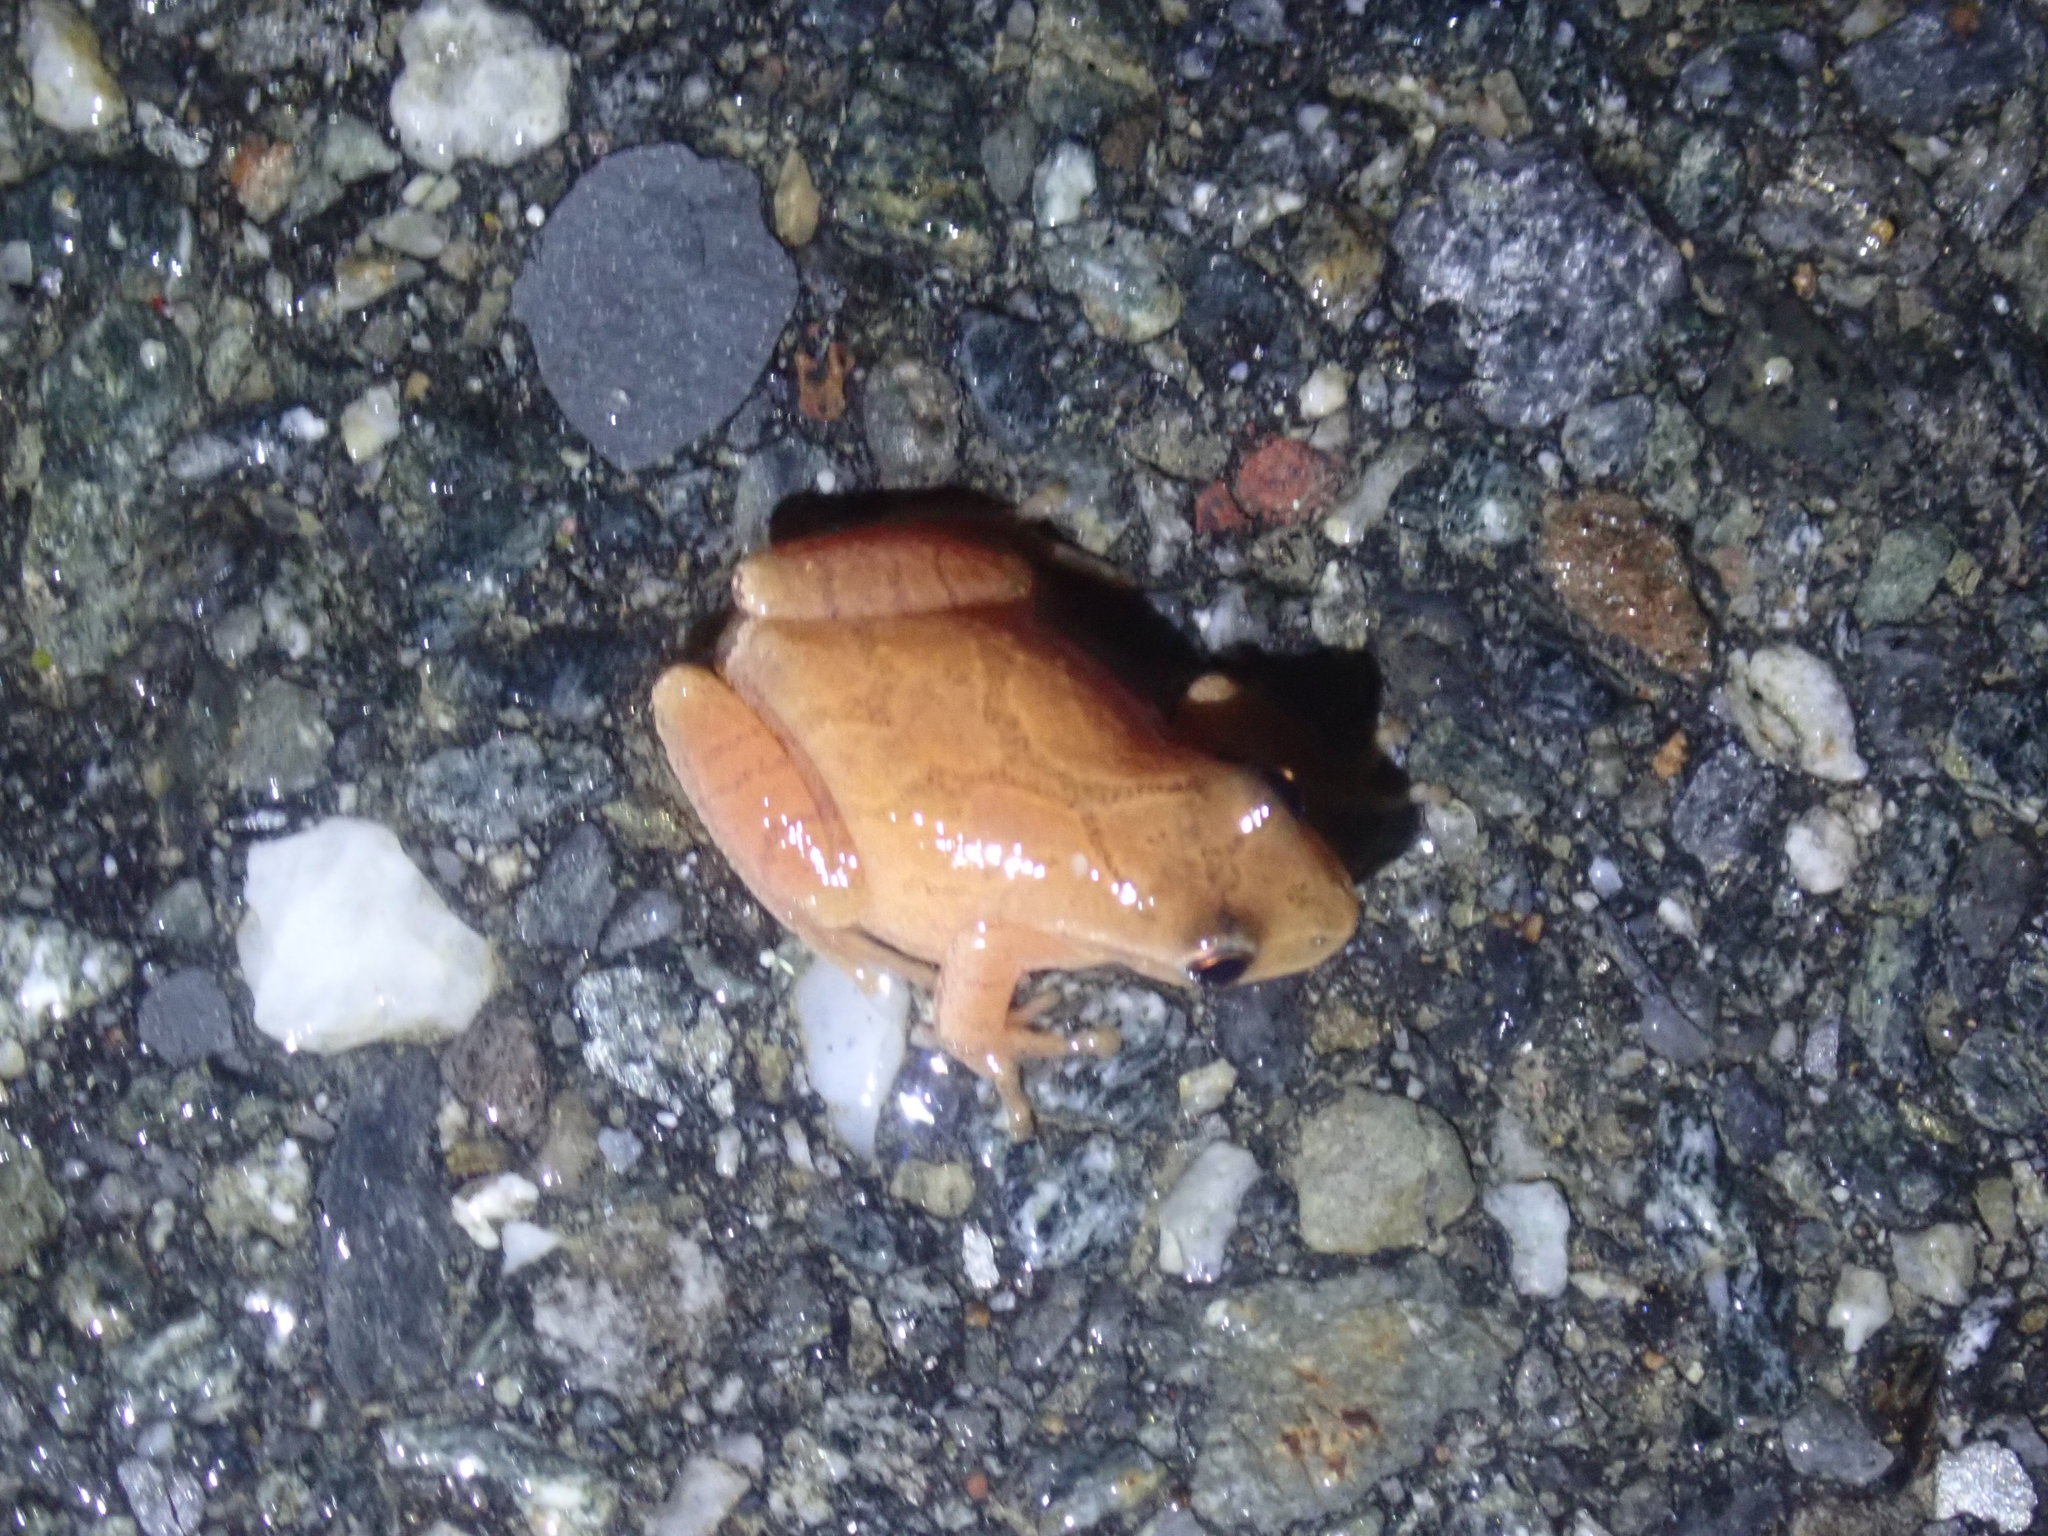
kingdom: Animalia
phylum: Chordata
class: Amphibia
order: Anura
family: Hylidae
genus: Pseudacris
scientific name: Pseudacris crucifer
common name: Spring peeper
